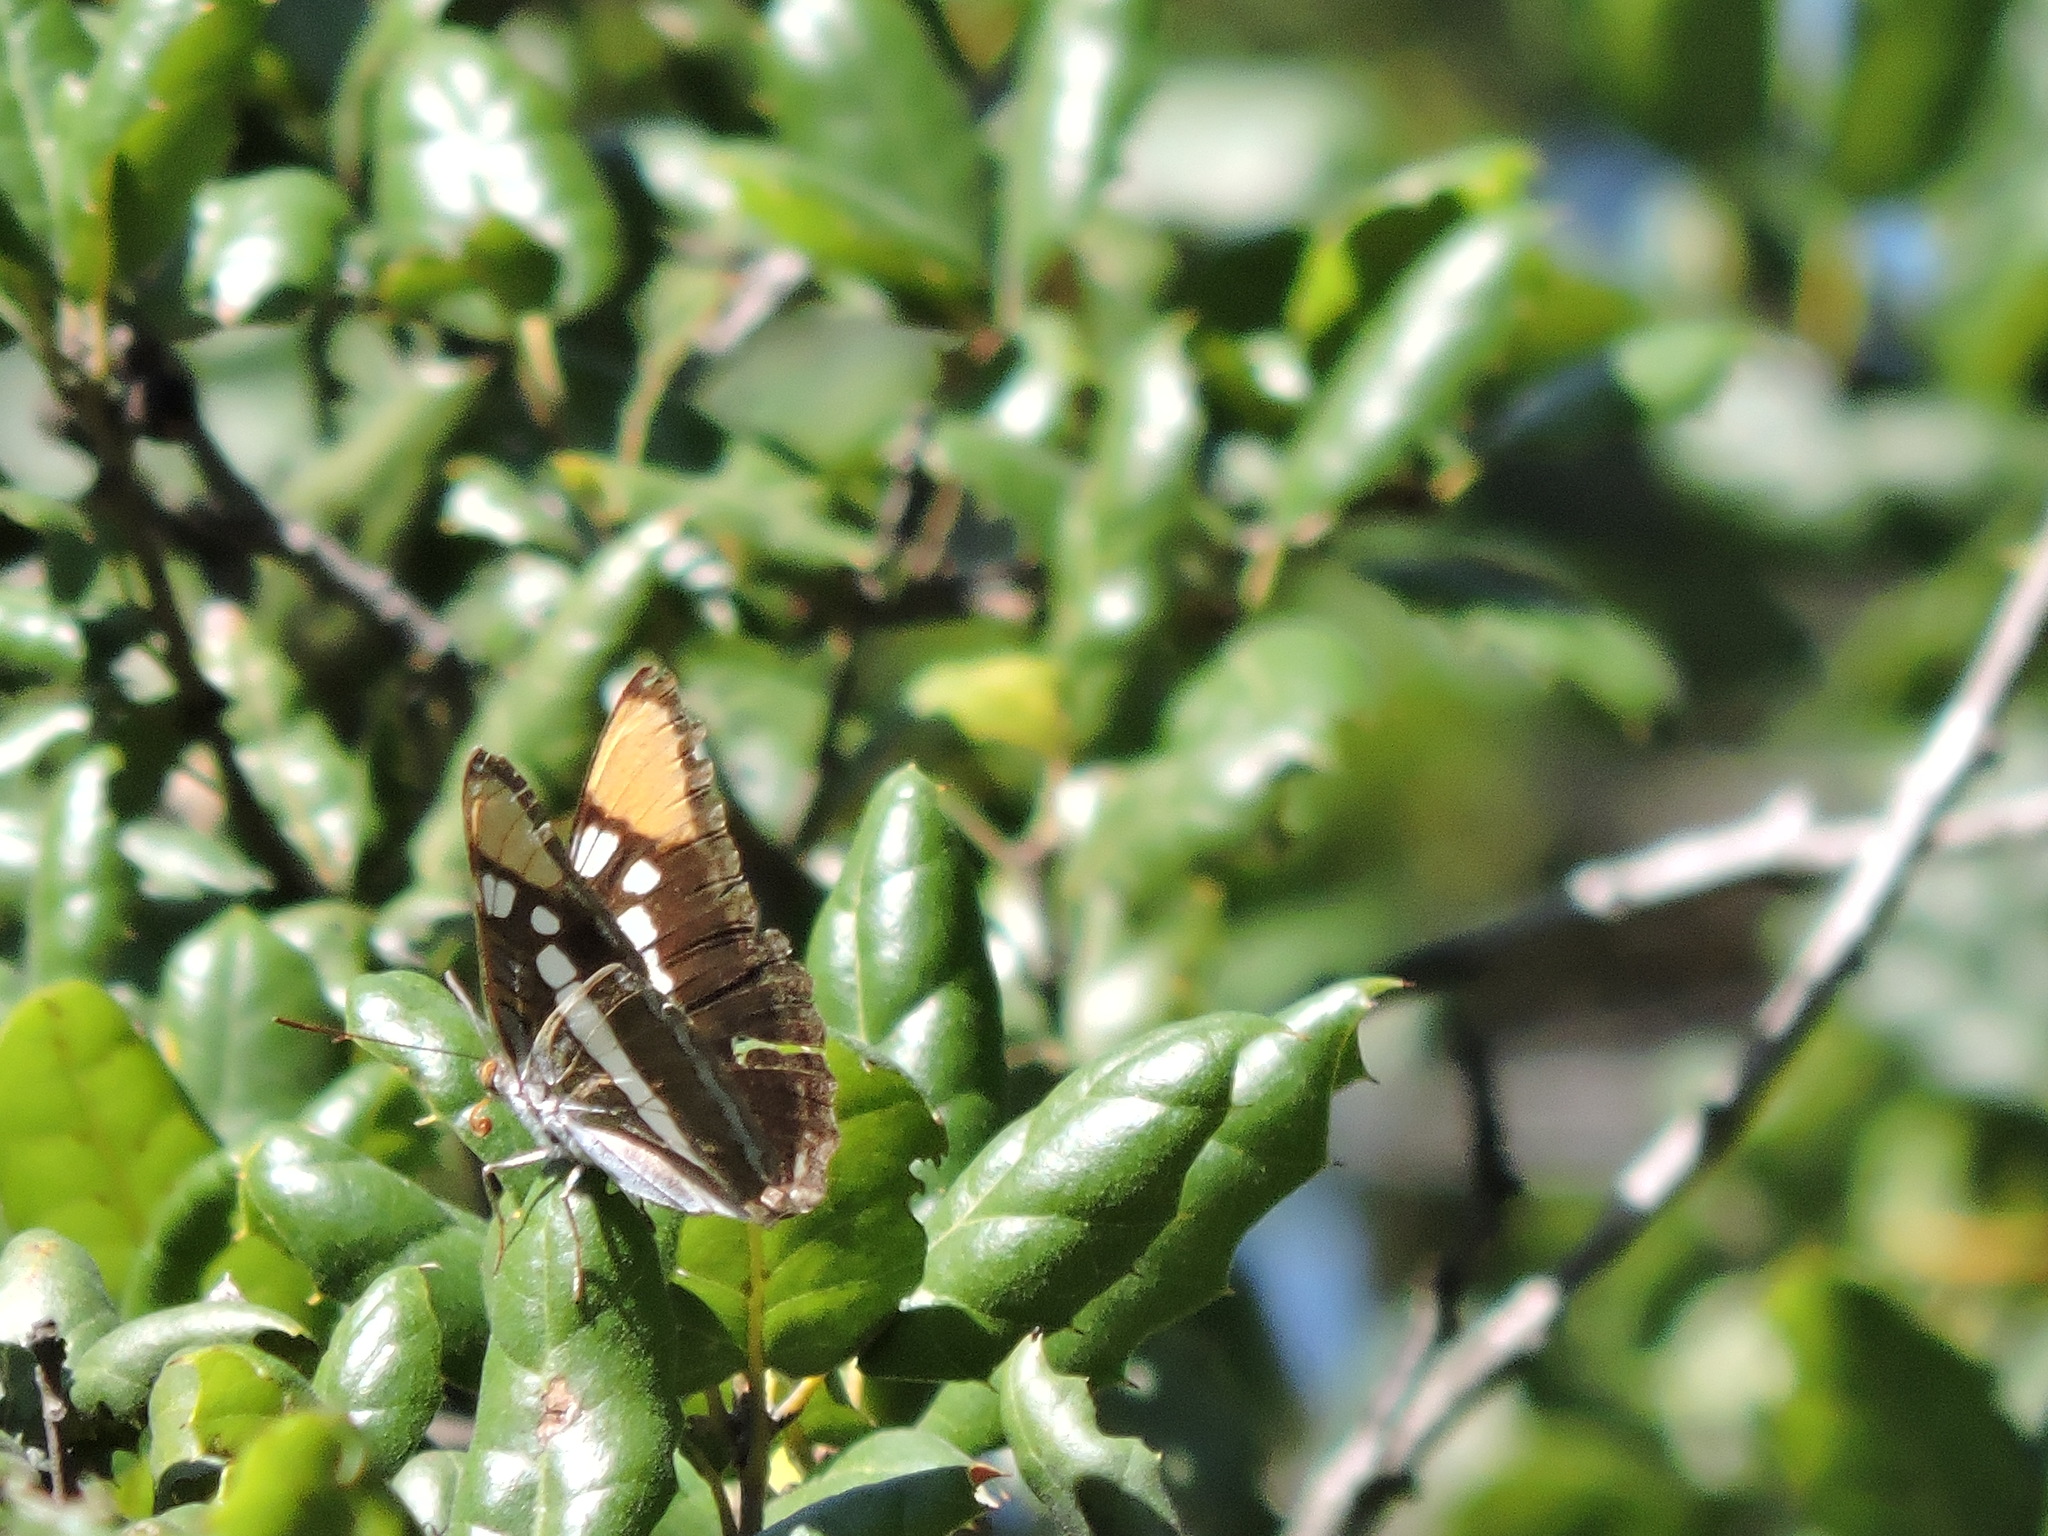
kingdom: Animalia
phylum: Arthropoda
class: Insecta
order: Lepidoptera
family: Nymphalidae
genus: Limenitis
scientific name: Limenitis bredowii
